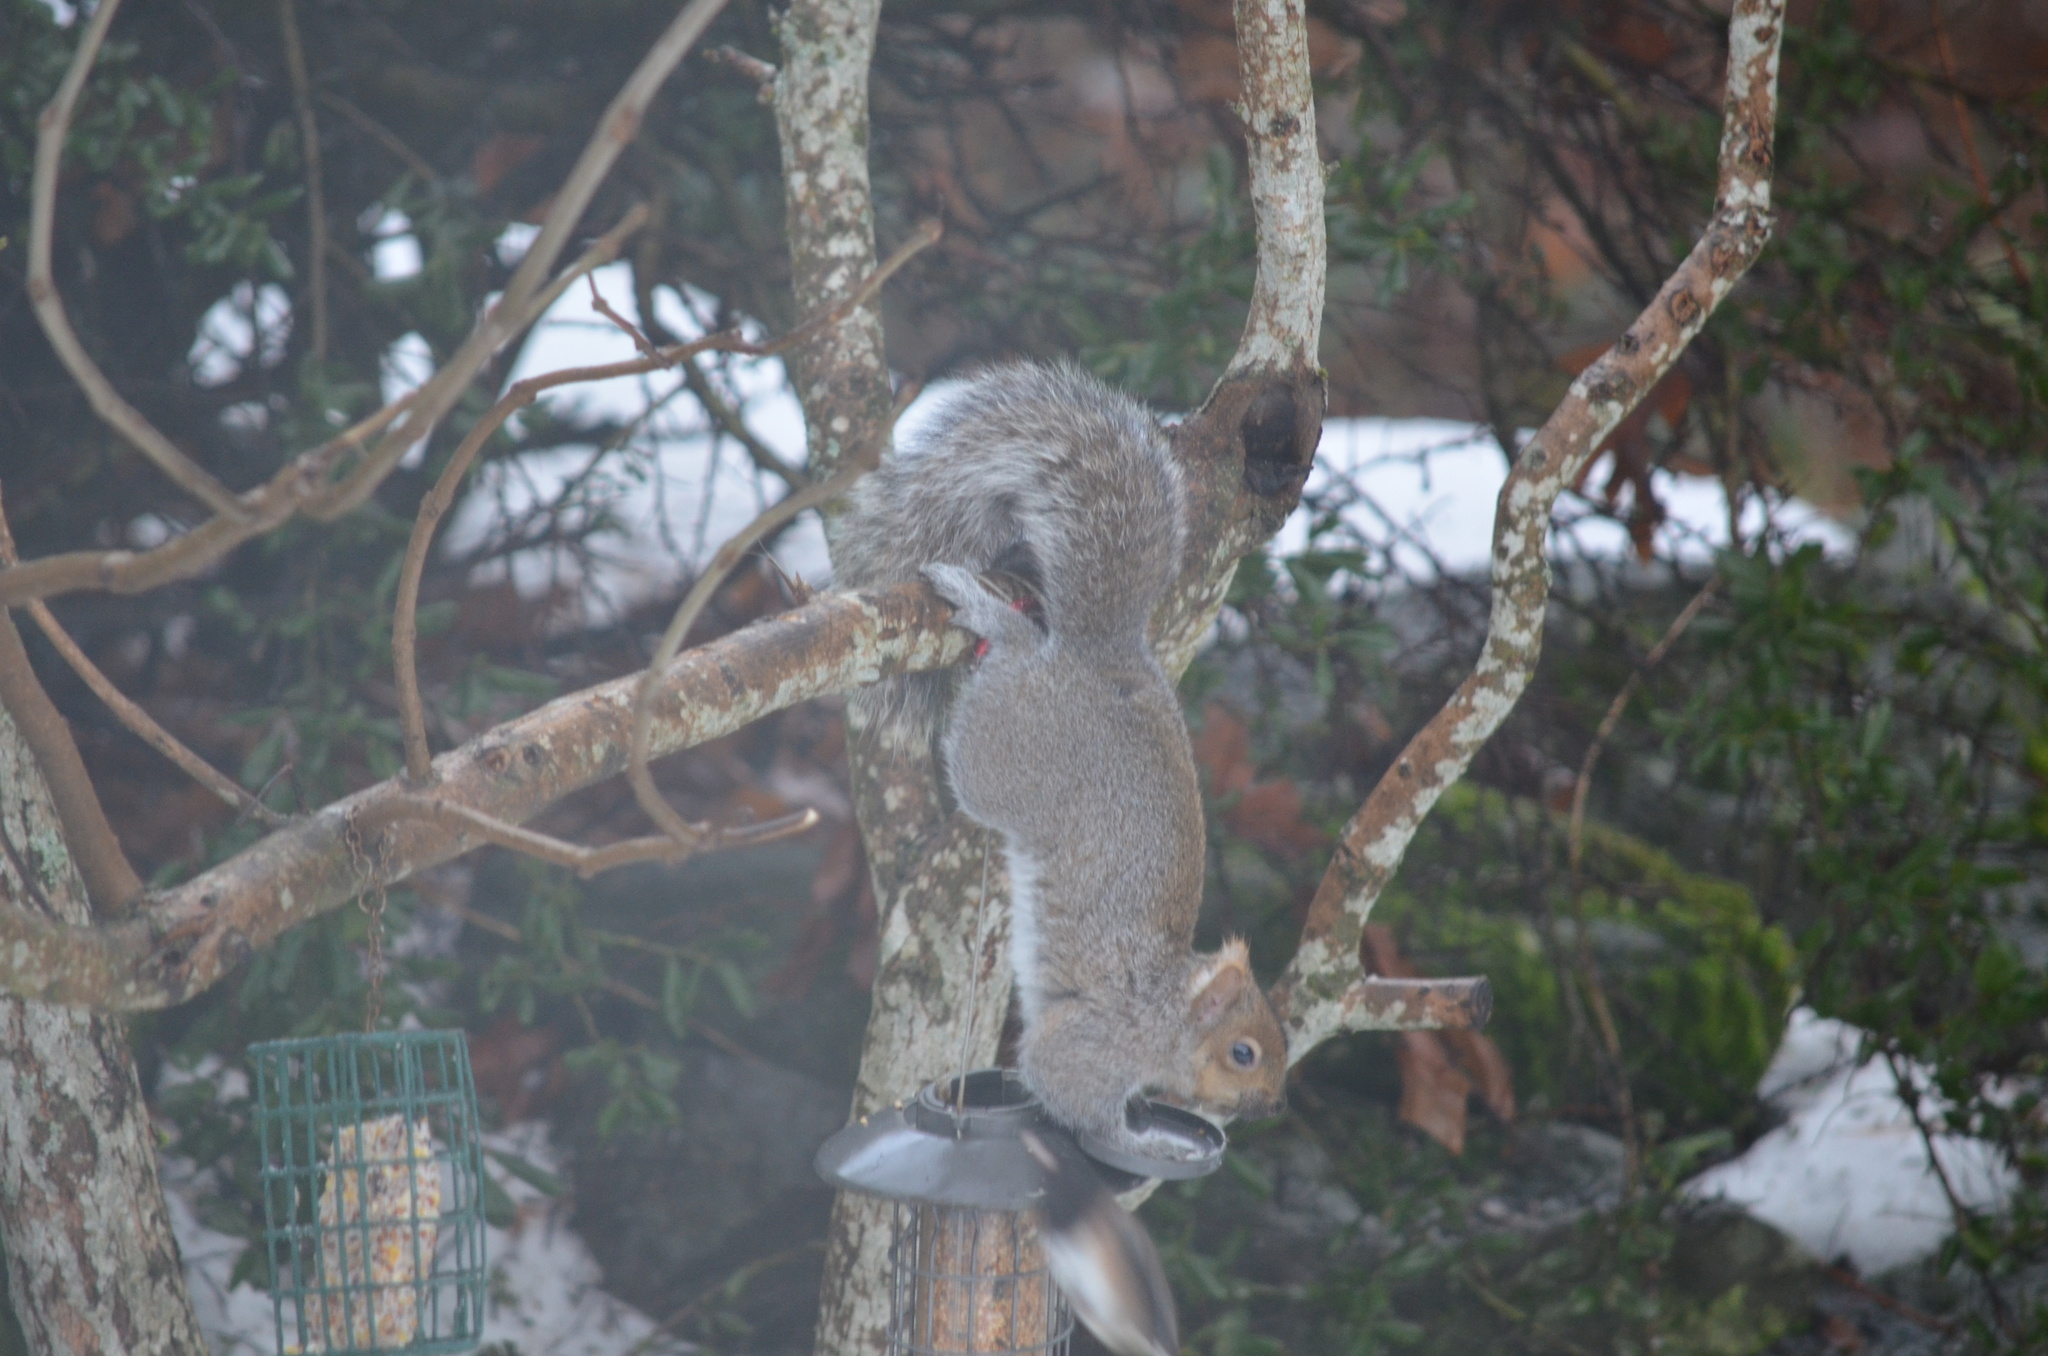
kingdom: Animalia
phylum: Chordata
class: Mammalia
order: Rodentia
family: Sciuridae
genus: Sciurus
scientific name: Sciurus carolinensis
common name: Eastern gray squirrel
